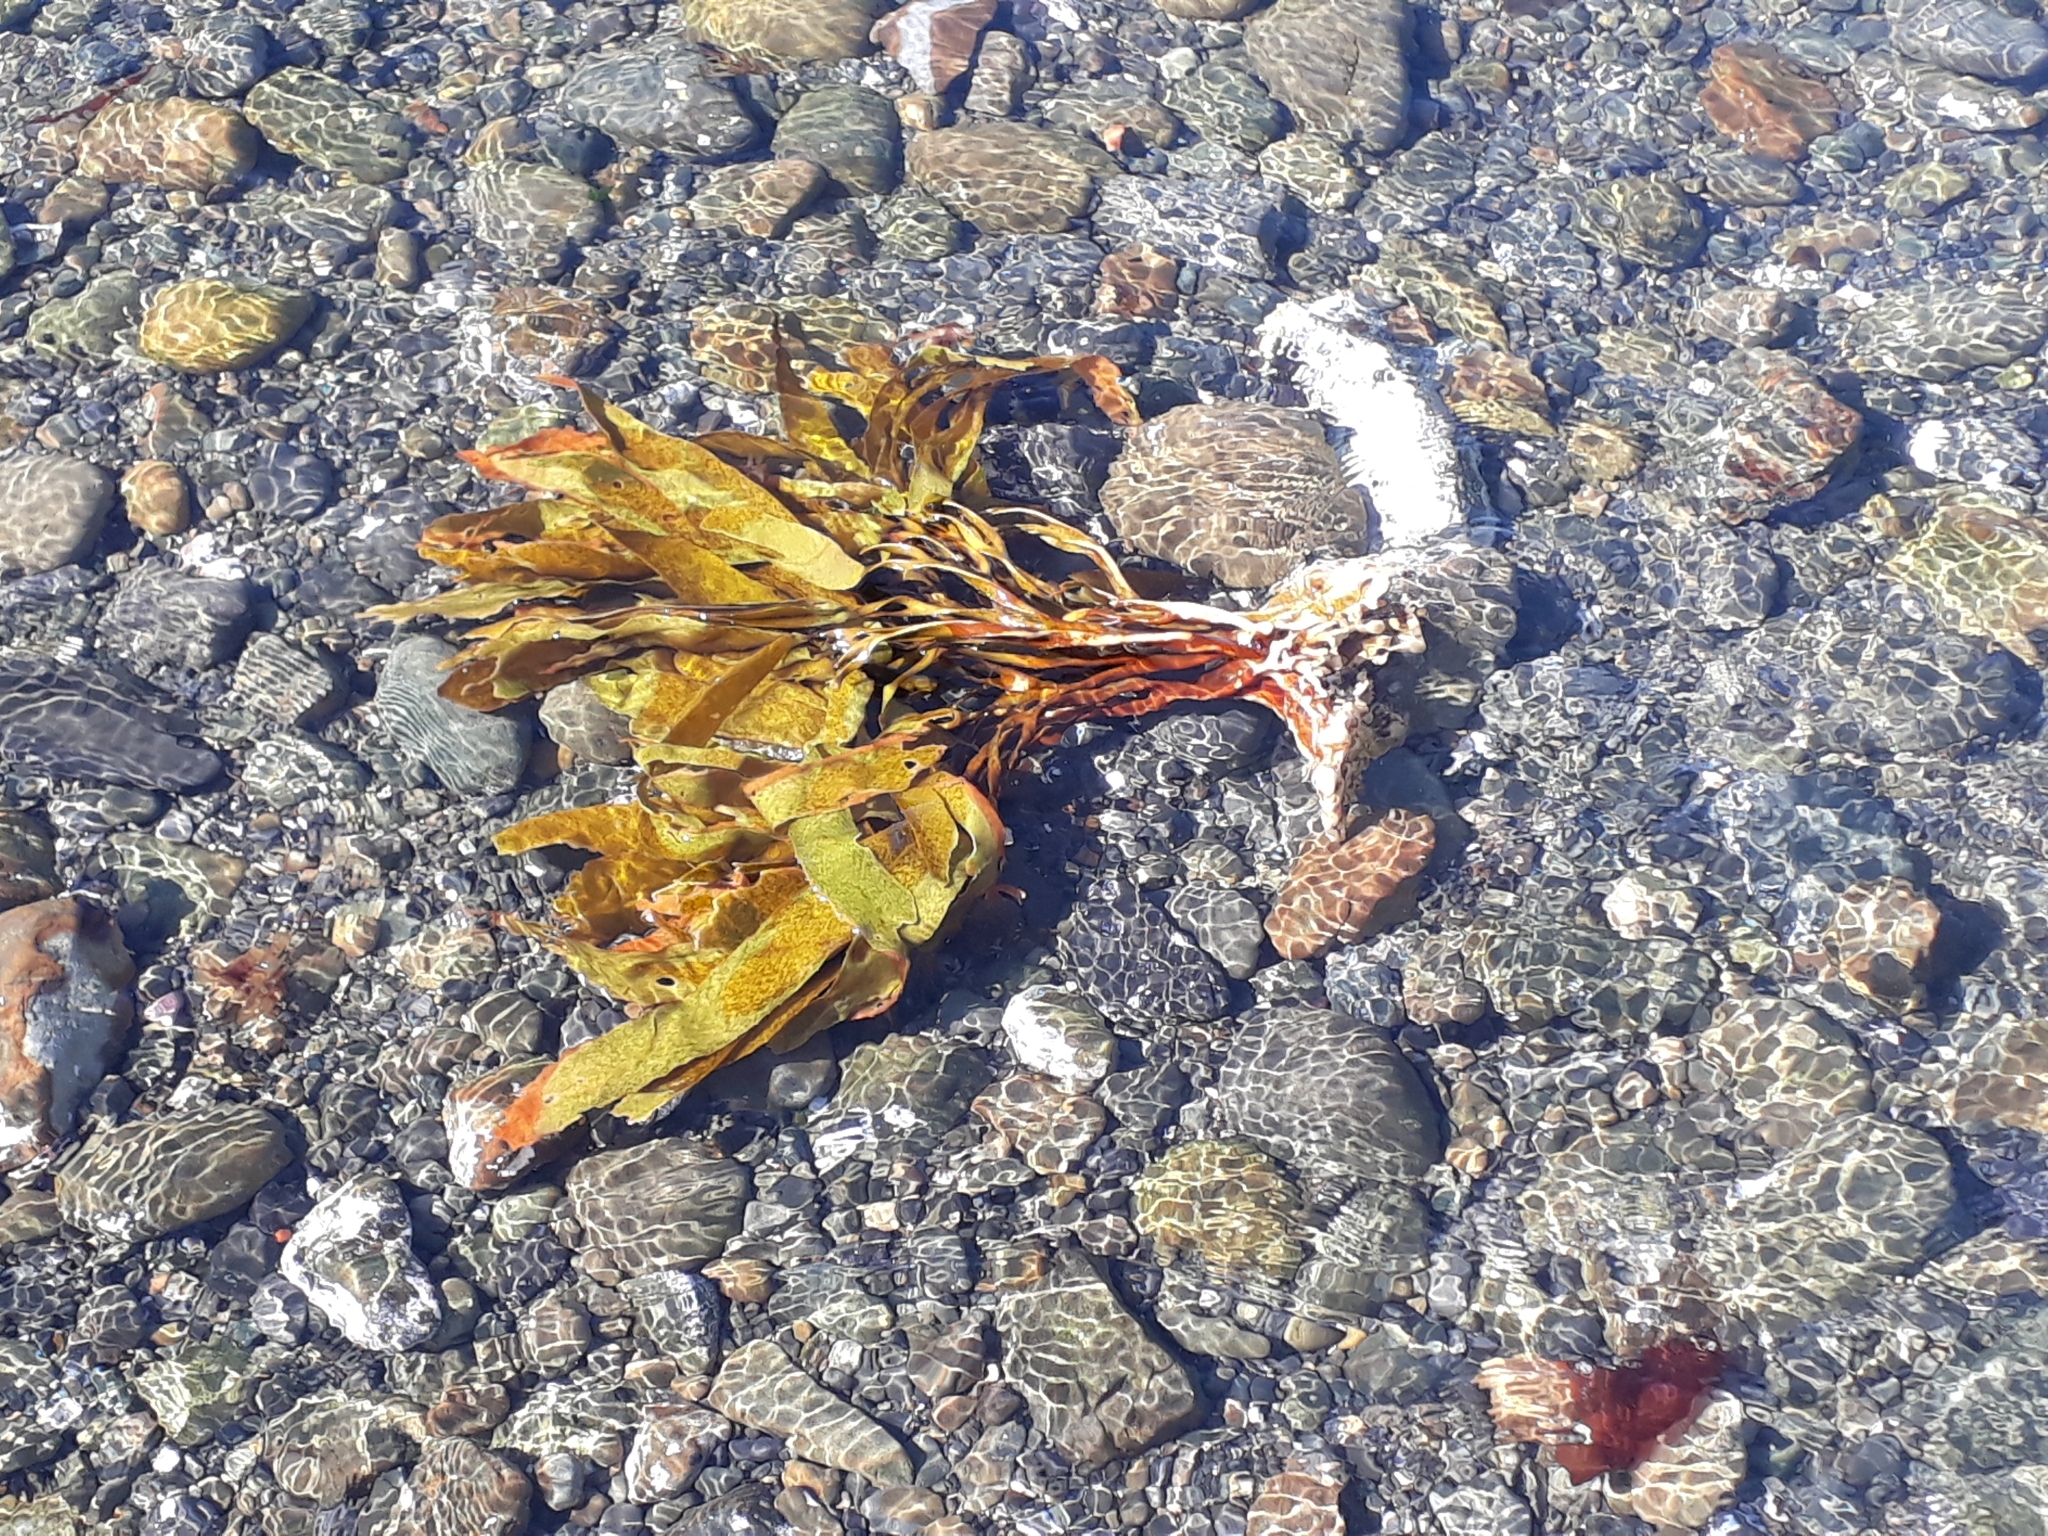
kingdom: Chromista
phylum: Ochrophyta
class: Phaeophyceae
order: Laminariales
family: Lessoniaceae
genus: Lessonia
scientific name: Lessonia variegata
